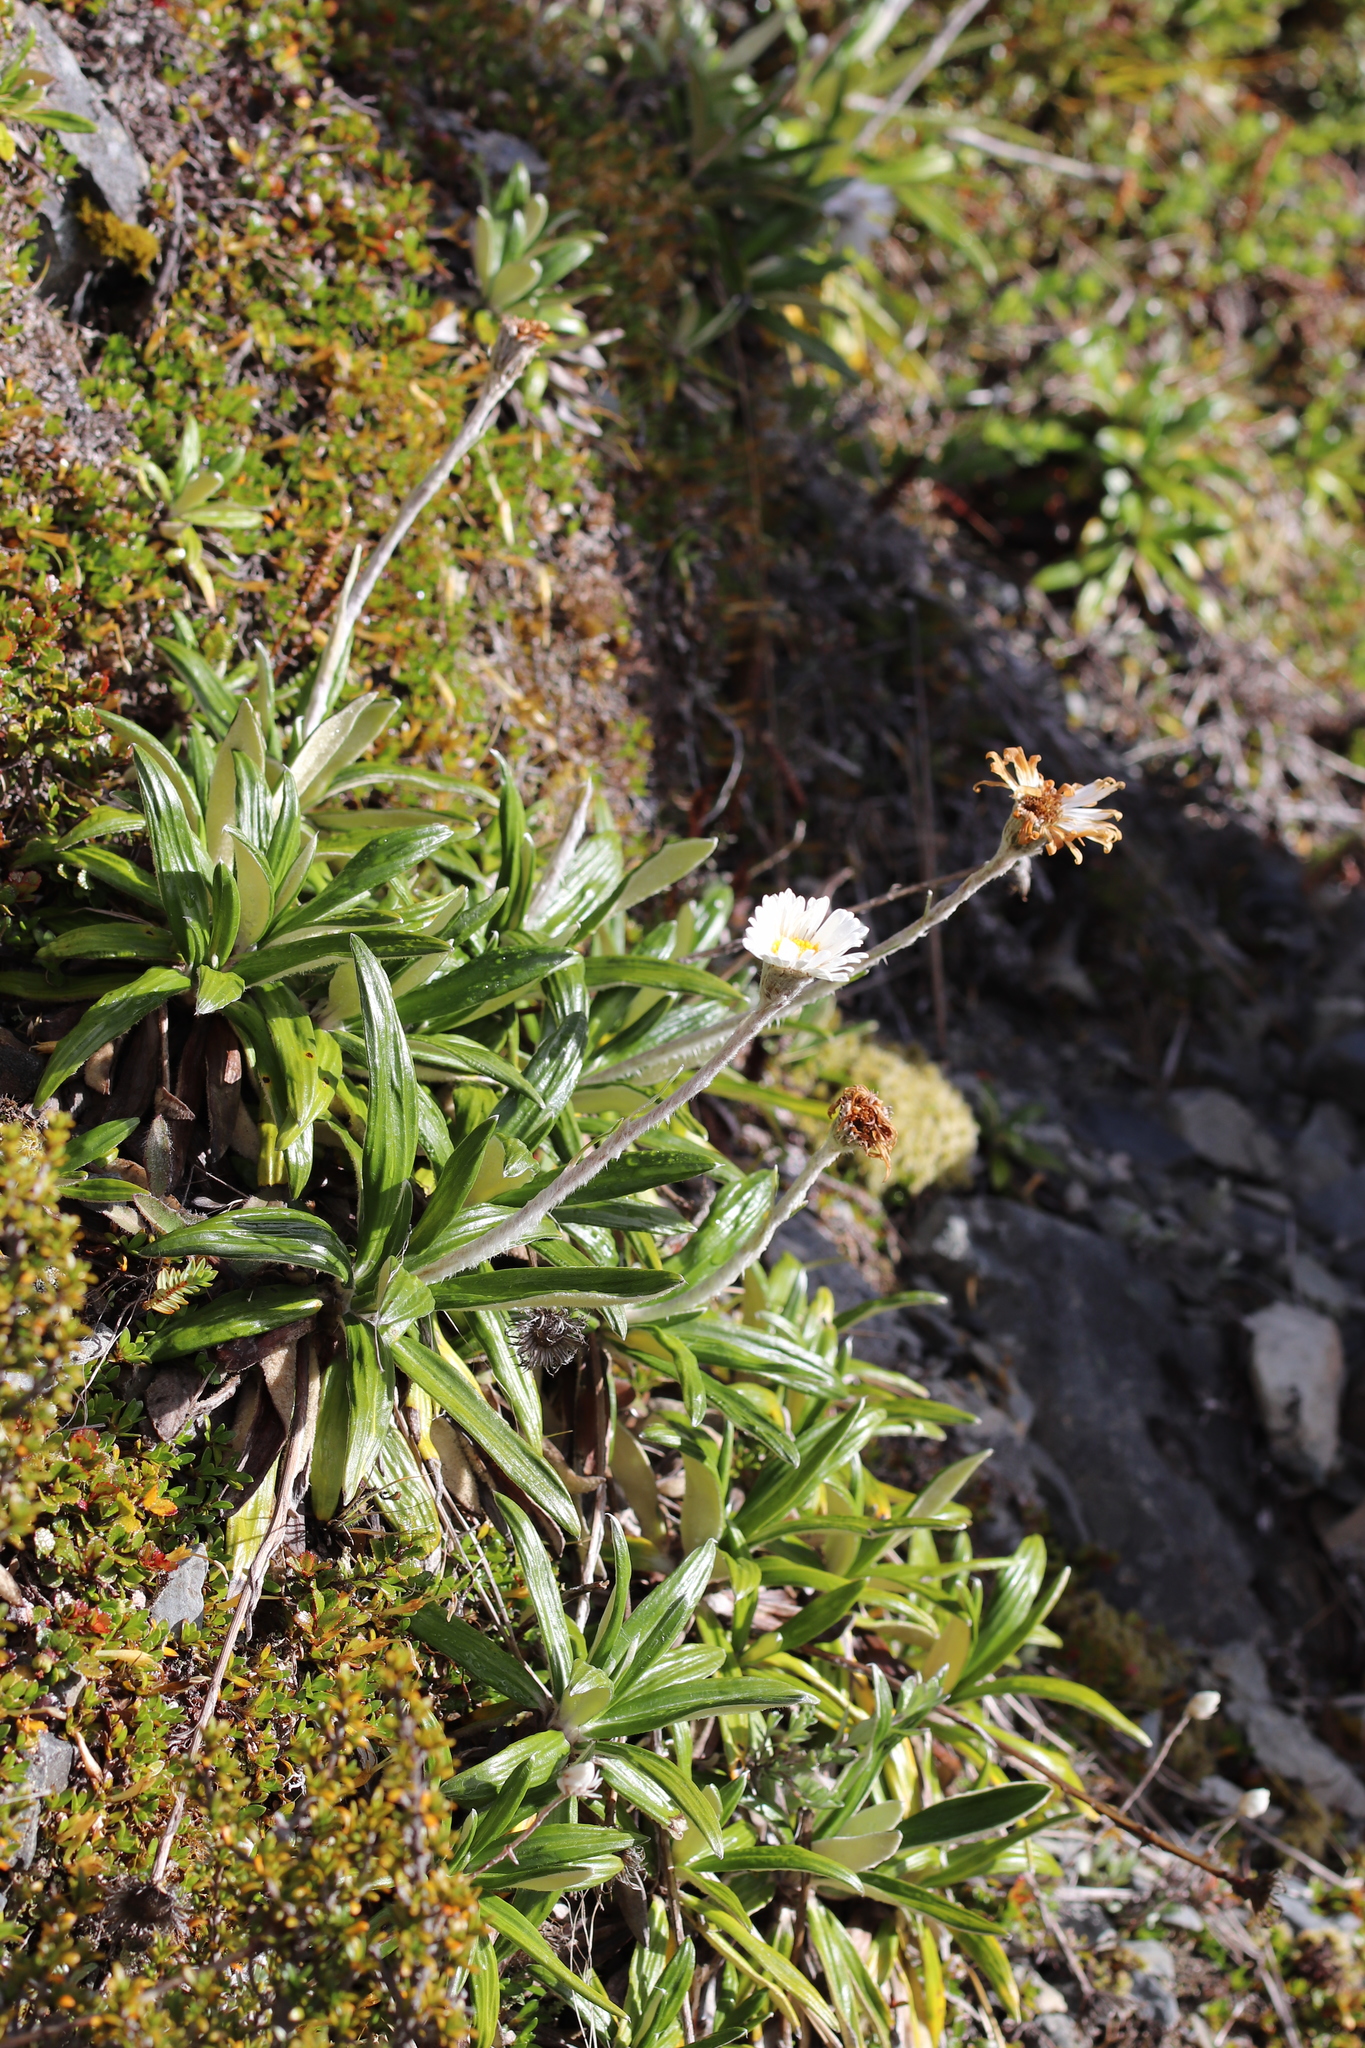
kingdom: Plantae
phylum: Tracheophyta
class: Magnoliopsida
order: Asterales
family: Asteraceae
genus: Celmisia
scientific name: Celmisia spectabilis
